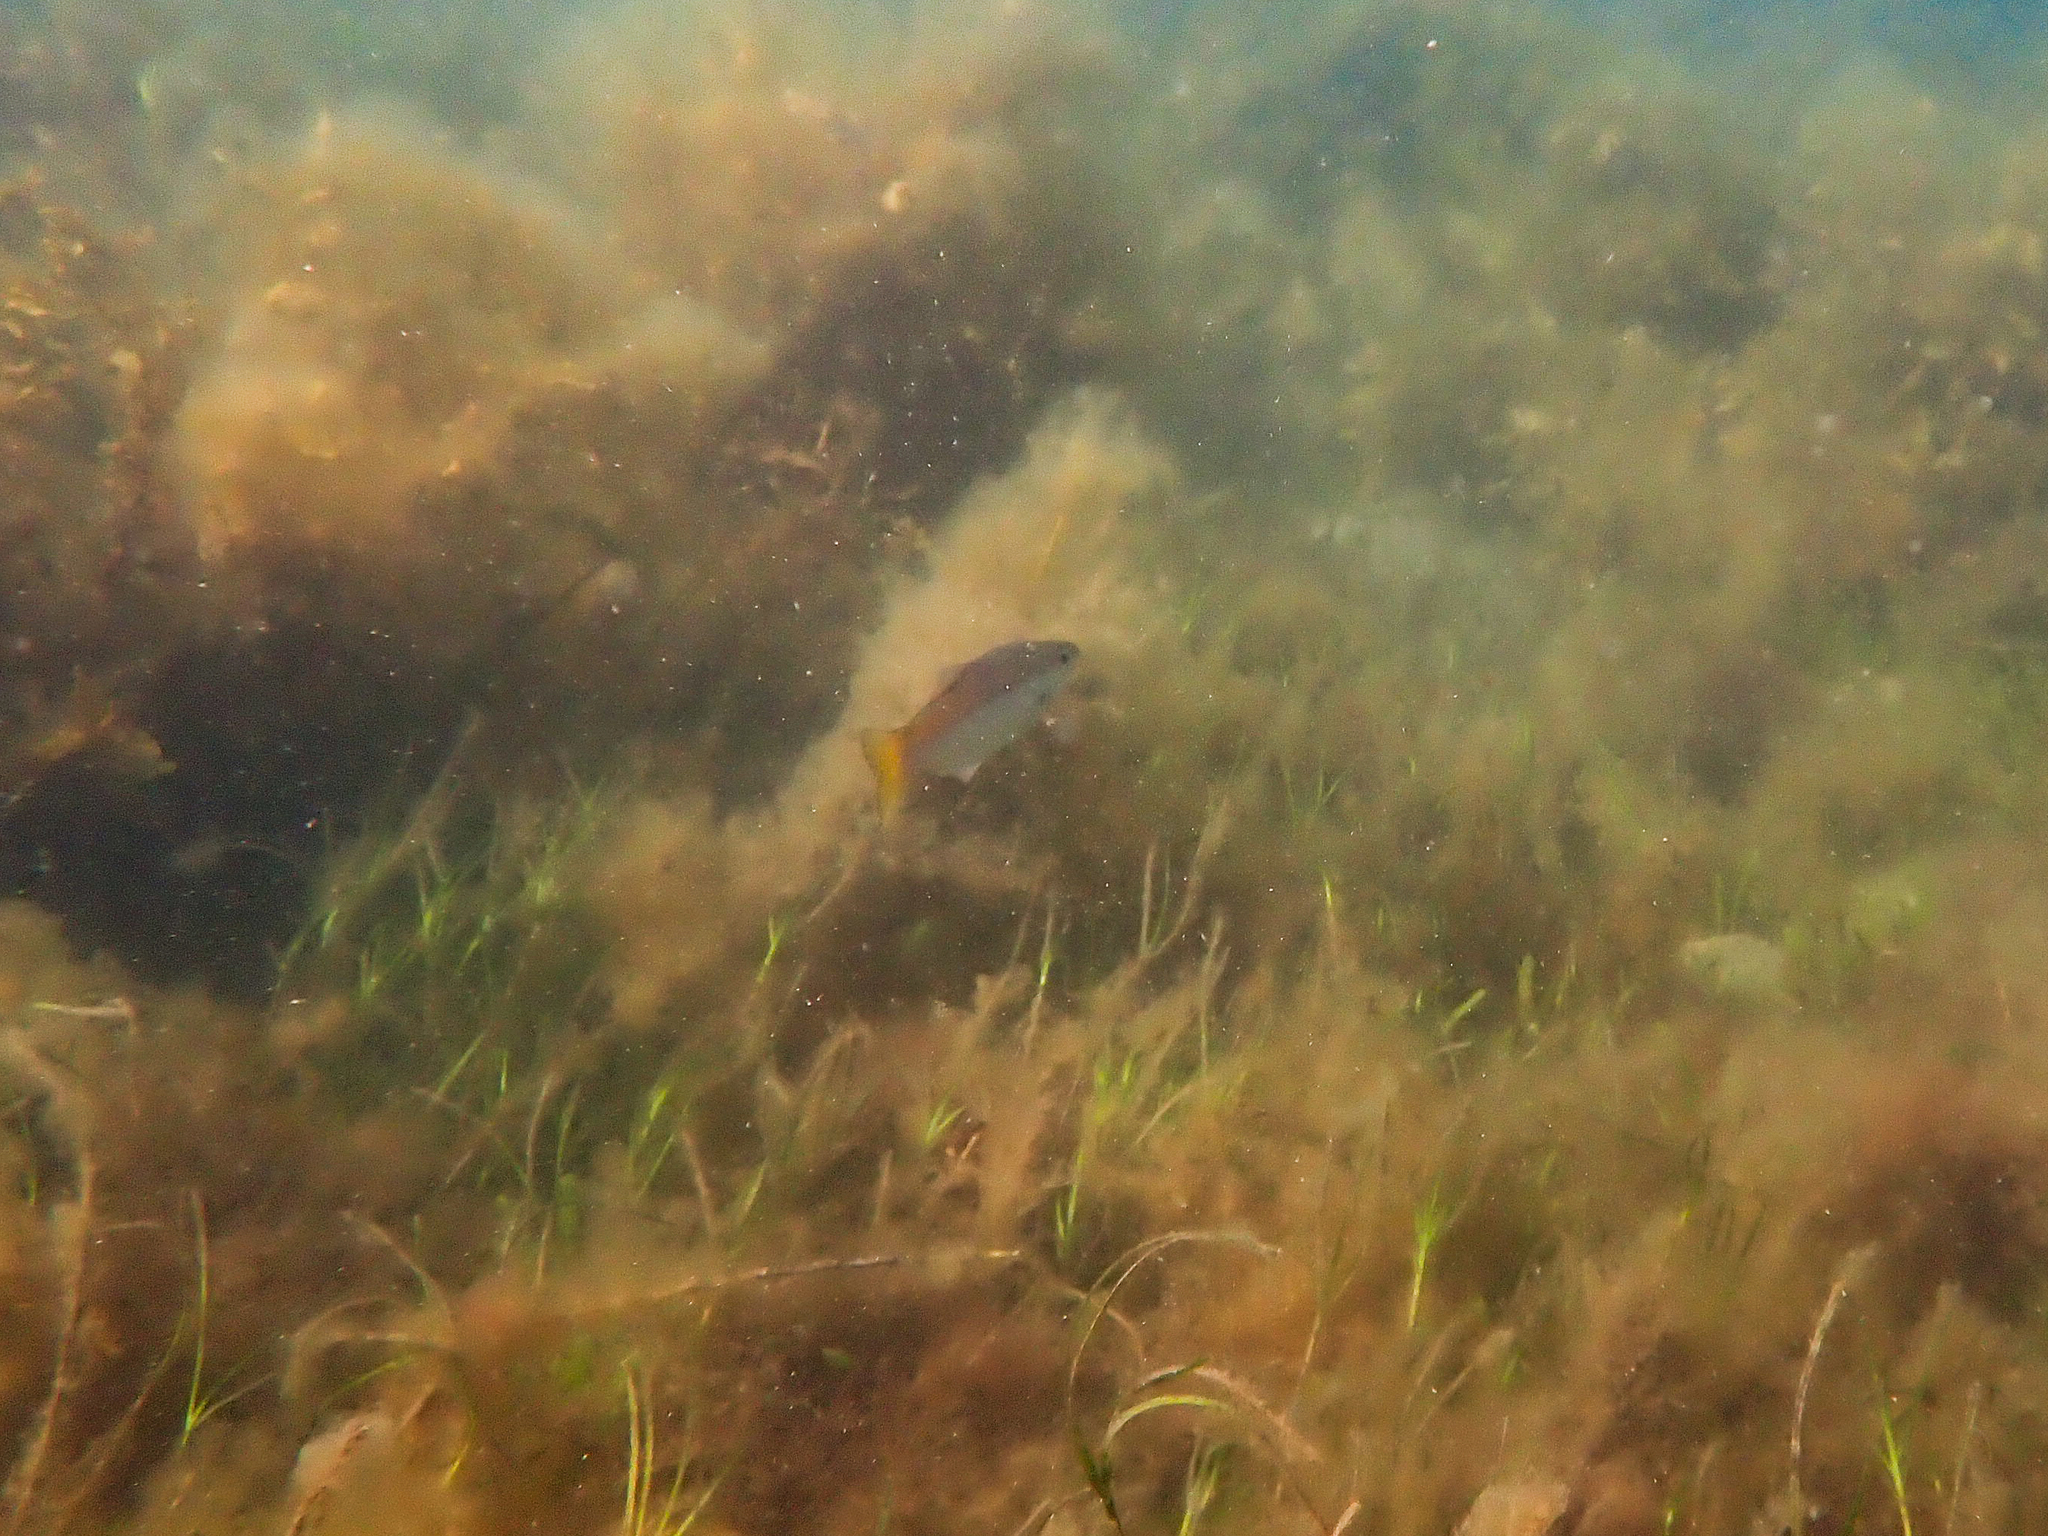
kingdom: Animalia
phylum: Chordata
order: Perciformes
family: Dinolestidae
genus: Dinolestes
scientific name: Dinolestes lewini
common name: Jack pike
